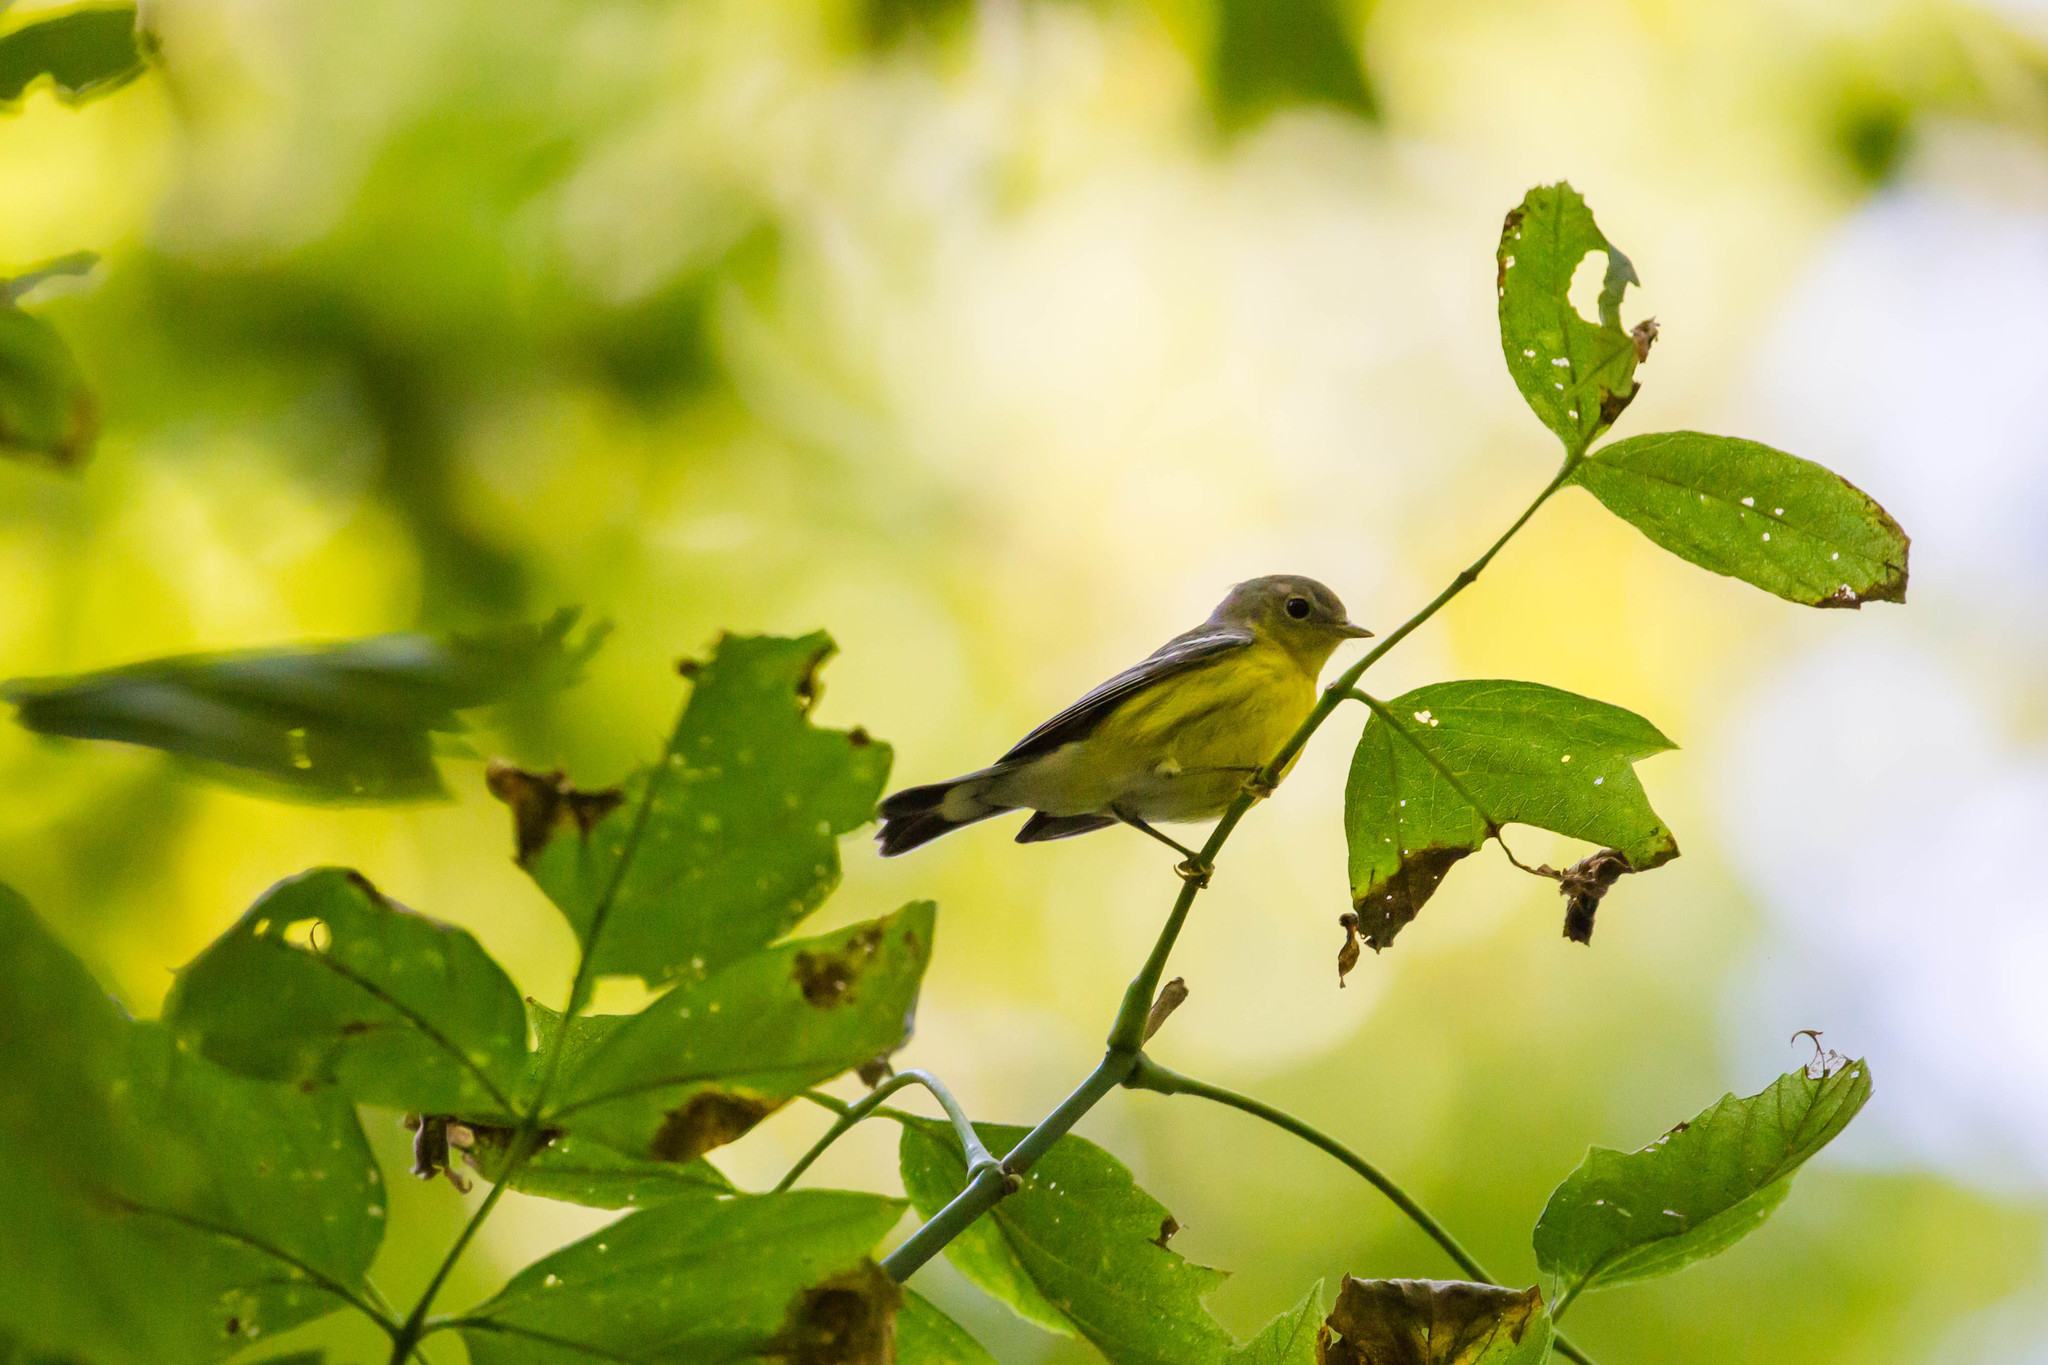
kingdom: Animalia
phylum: Chordata
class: Aves
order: Passeriformes
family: Parulidae
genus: Setophaga
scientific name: Setophaga magnolia
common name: Magnolia warbler
